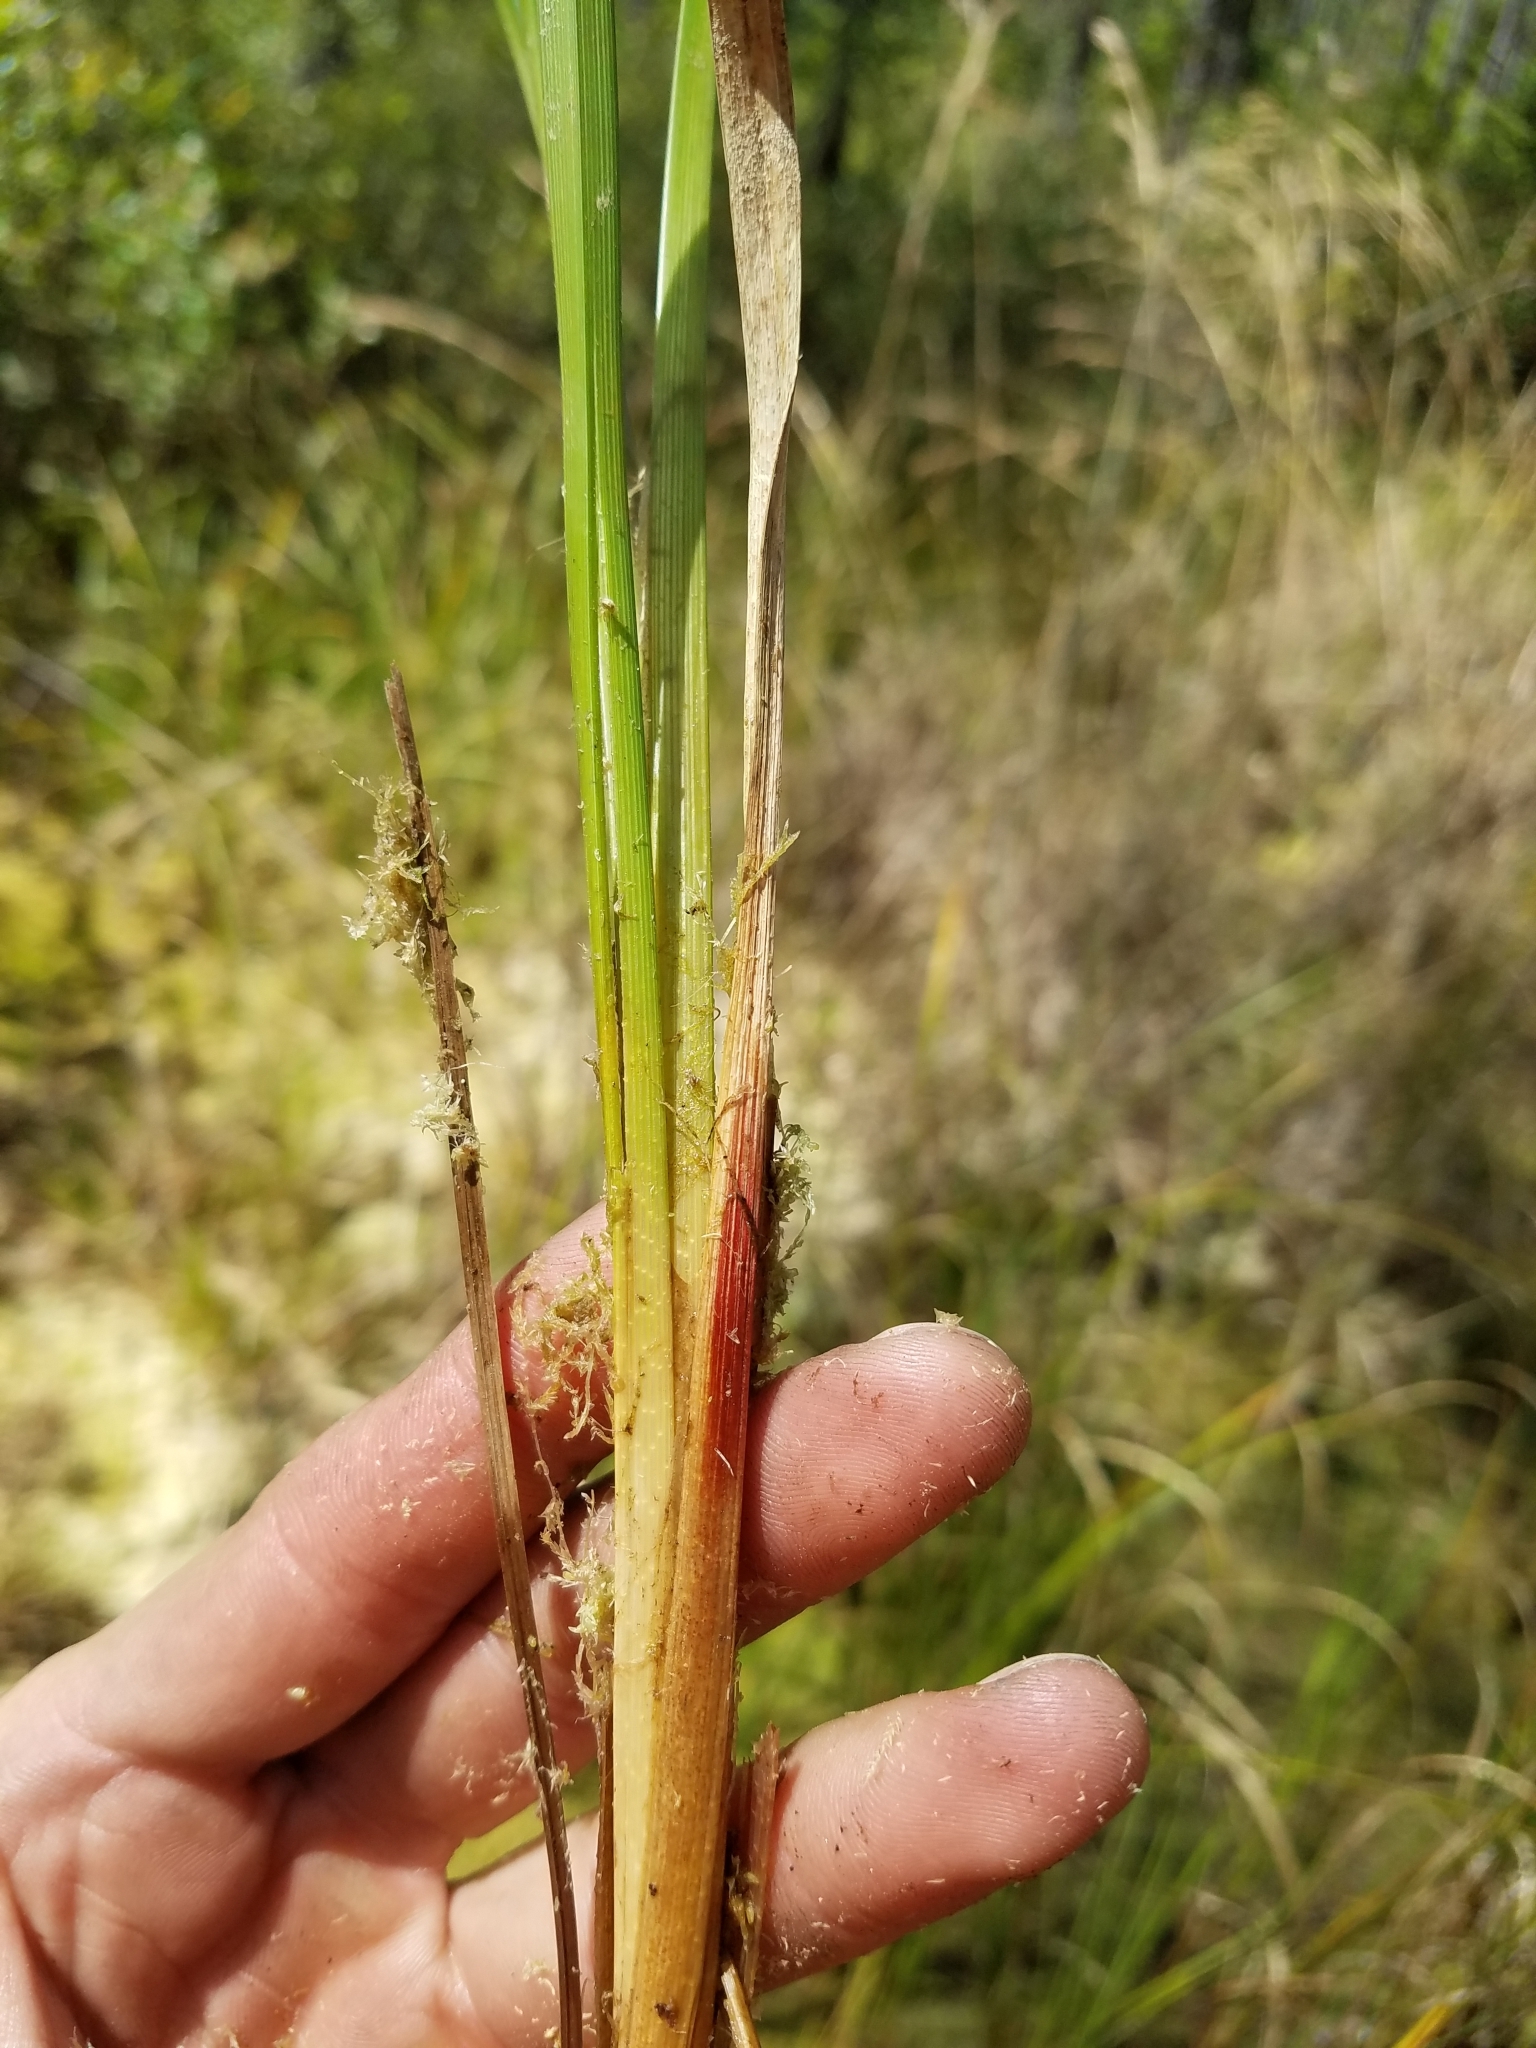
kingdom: Plantae
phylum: Tracheophyta
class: Liliopsida
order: Poales
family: Cyperaceae
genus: Carex
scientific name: Carex striata
